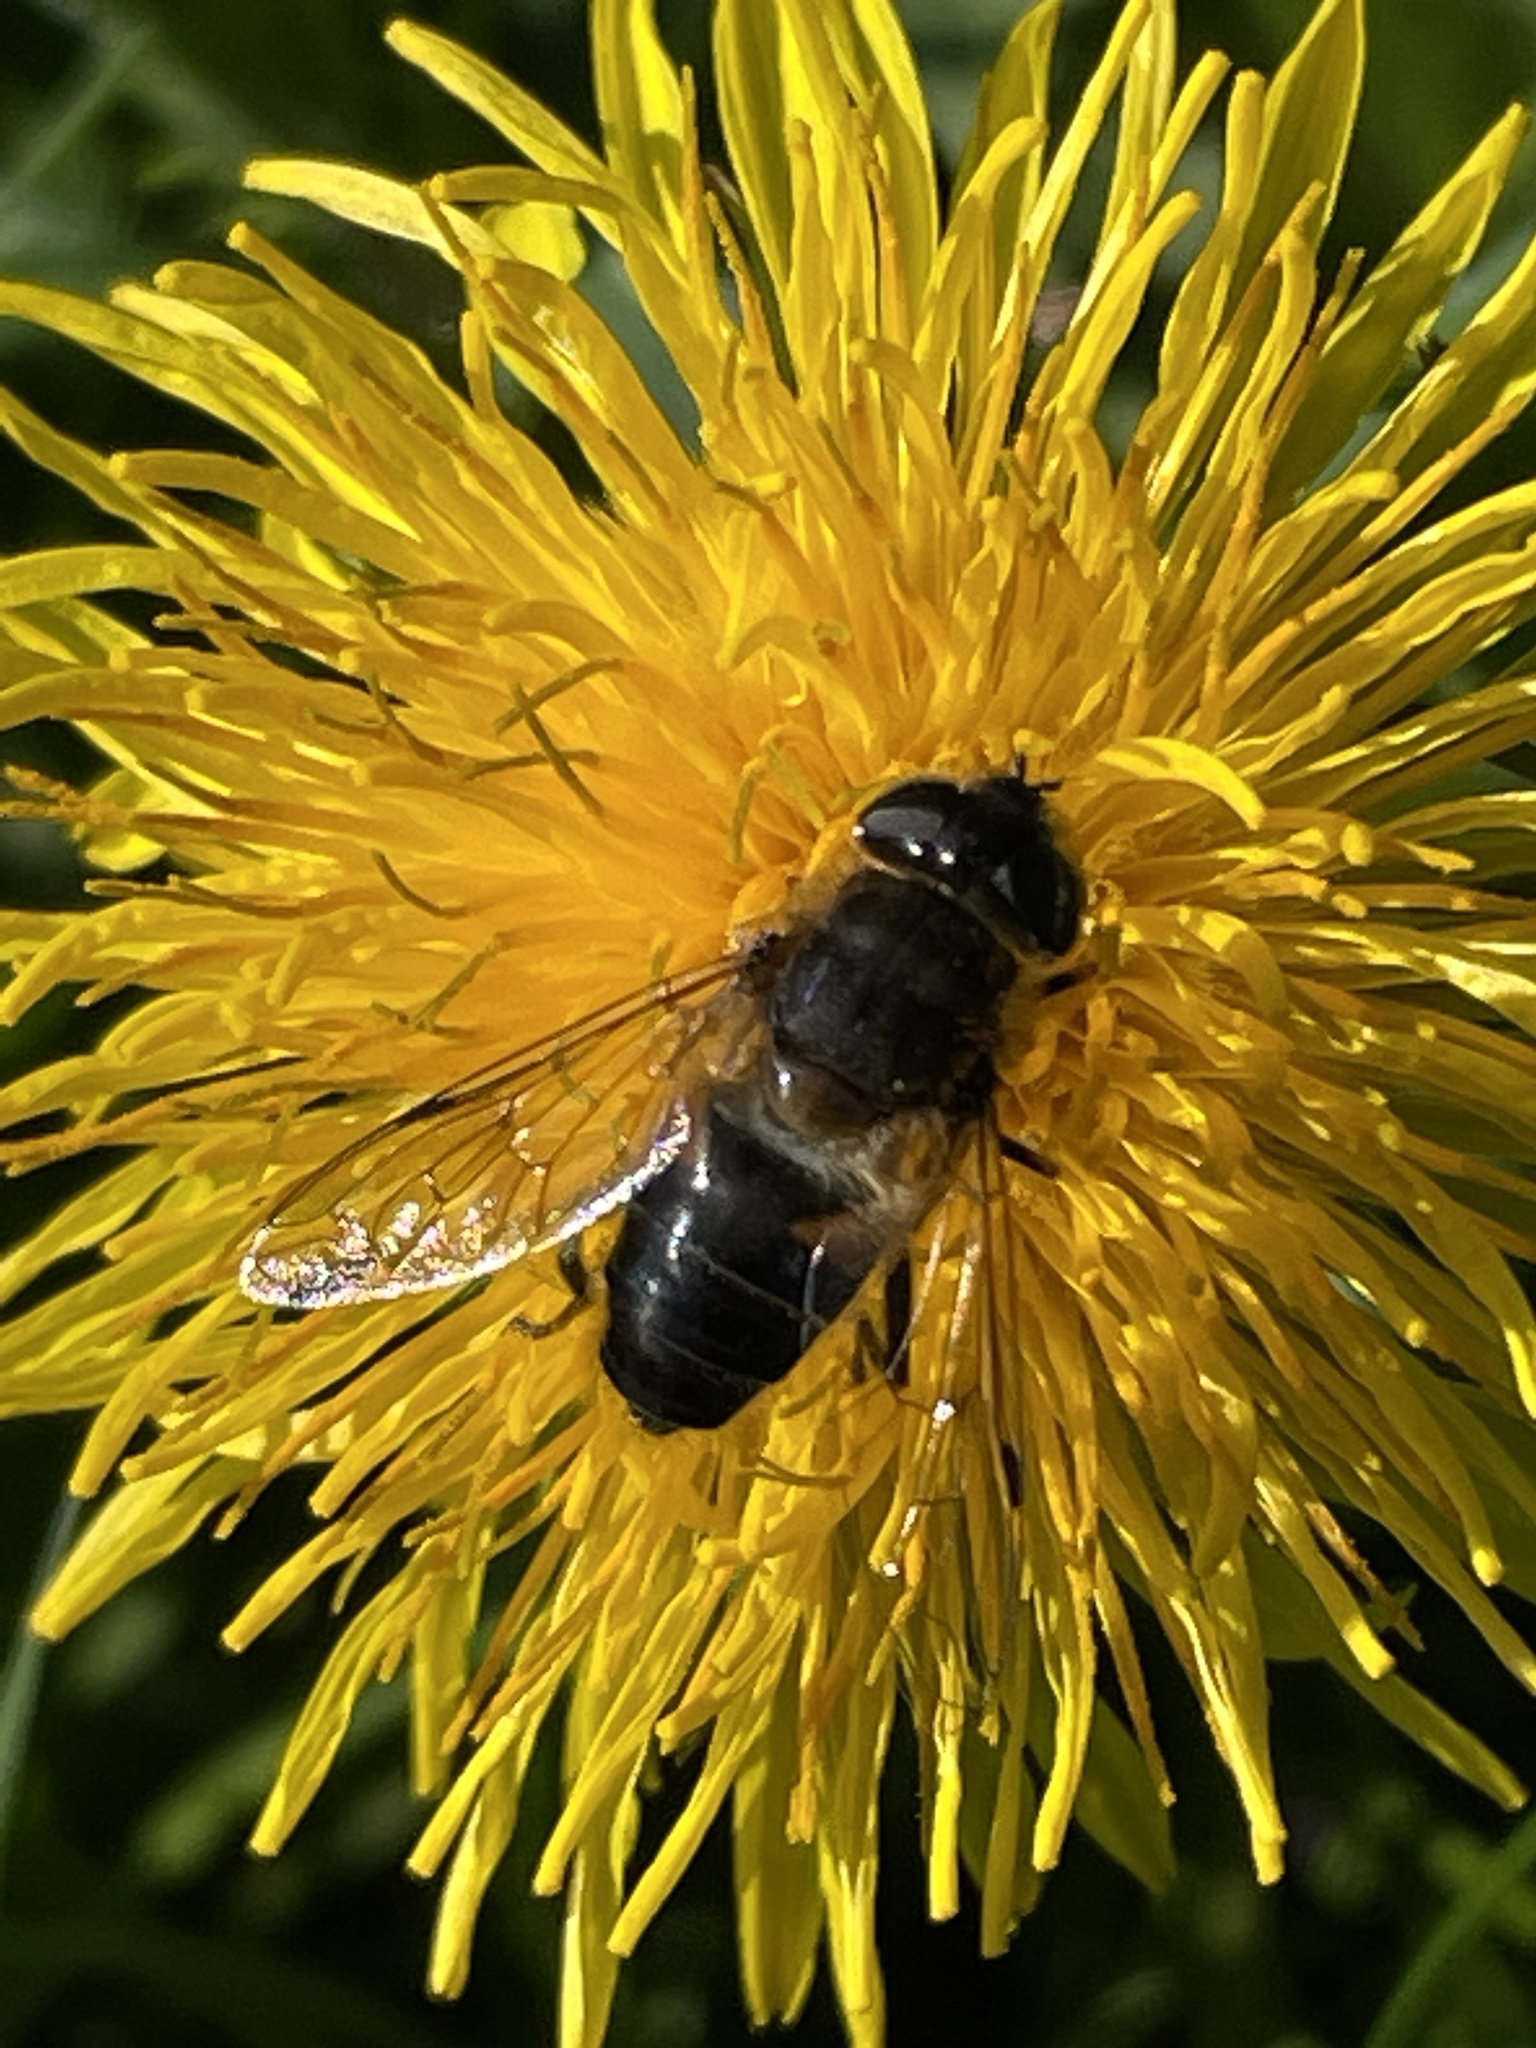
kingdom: Animalia
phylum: Arthropoda
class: Insecta
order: Diptera
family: Syrphidae
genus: Eristalis
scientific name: Eristalis pertinax
